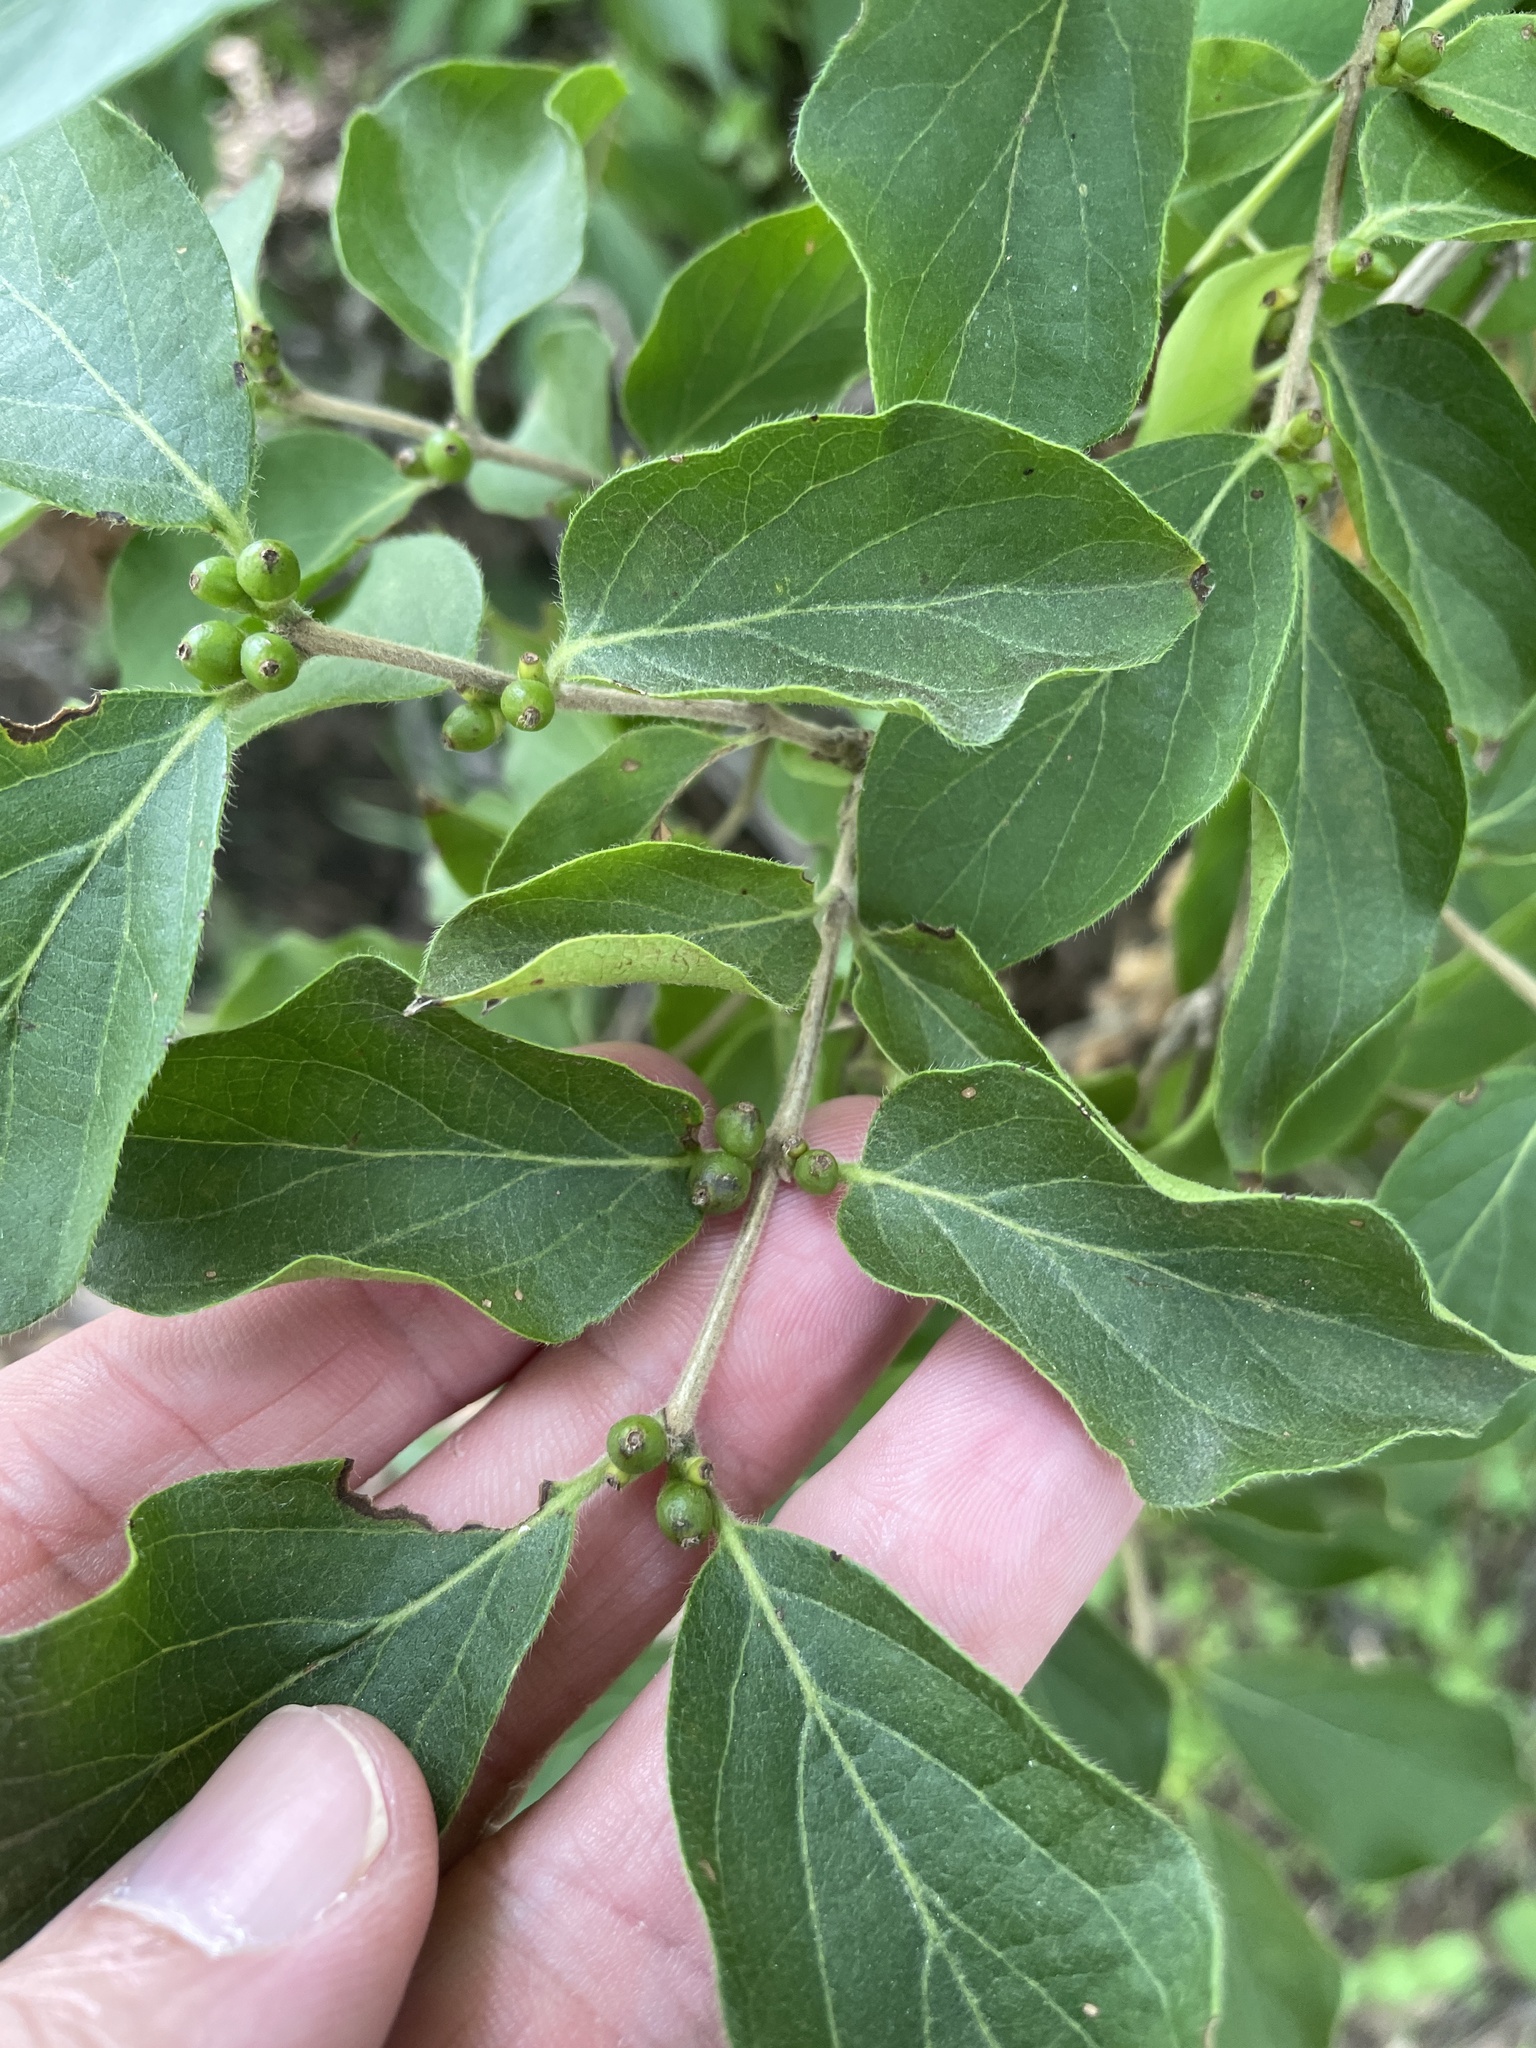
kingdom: Plantae
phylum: Tracheophyta
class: Magnoliopsida
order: Dipsacales
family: Caprifoliaceae
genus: Lonicera
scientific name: Lonicera maackii
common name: Amur honeysuckle
